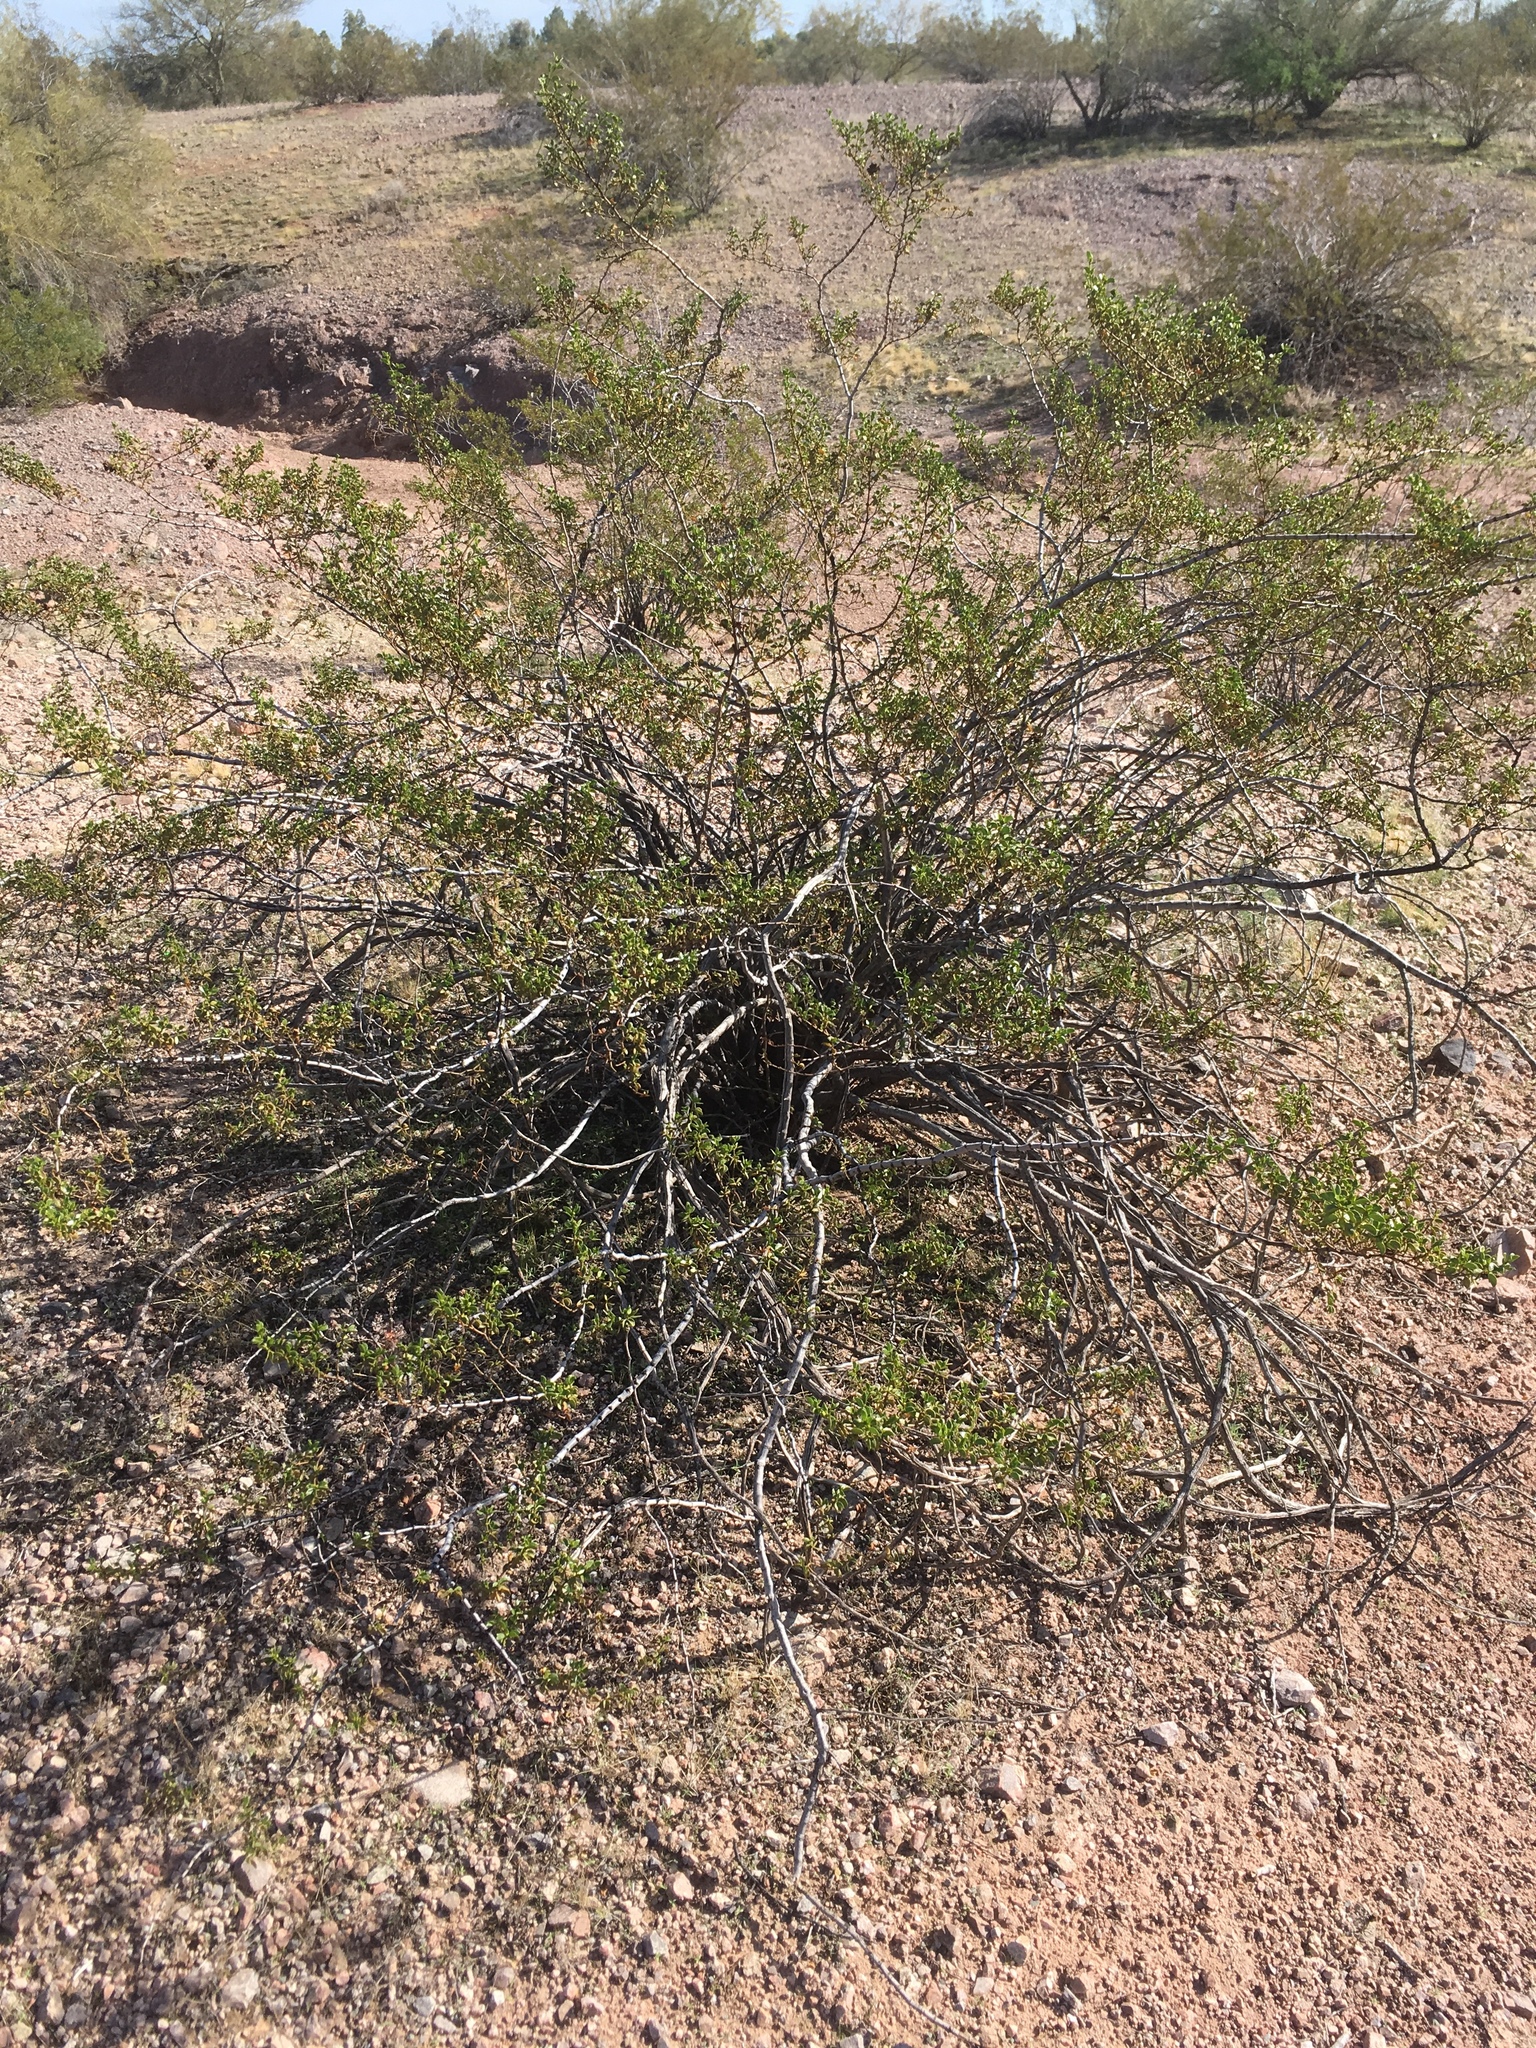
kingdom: Plantae
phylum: Tracheophyta
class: Magnoliopsida
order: Zygophyllales
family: Zygophyllaceae
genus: Larrea
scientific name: Larrea tridentata
